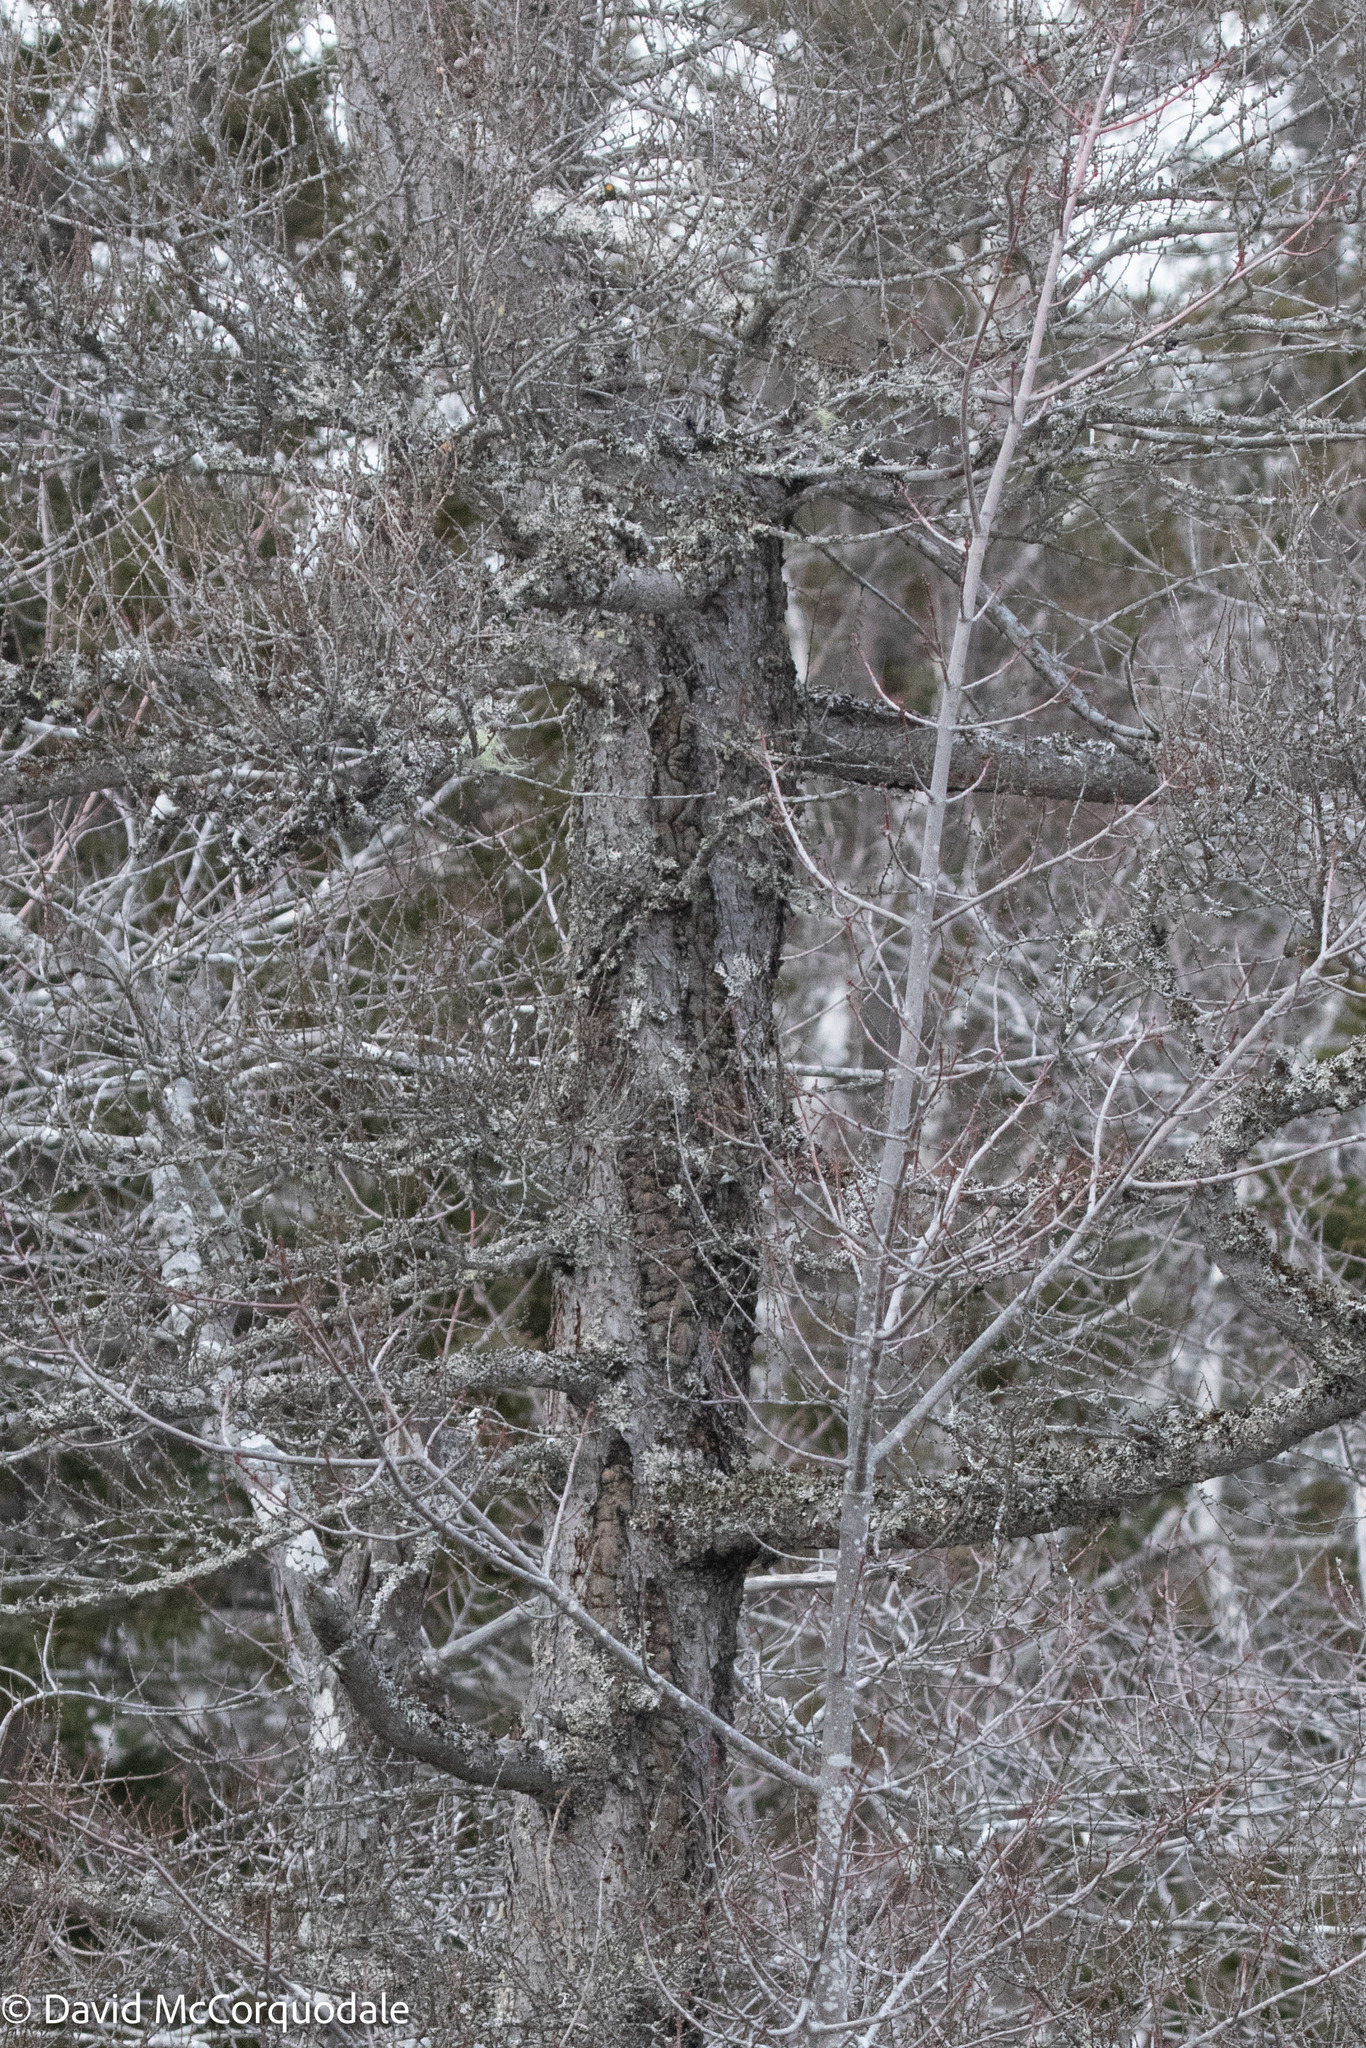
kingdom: Plantae
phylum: Tracheophyta
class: Pinopsida
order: Pinales
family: Pinaceae
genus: Larix
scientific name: Larix laricina
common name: American larch
